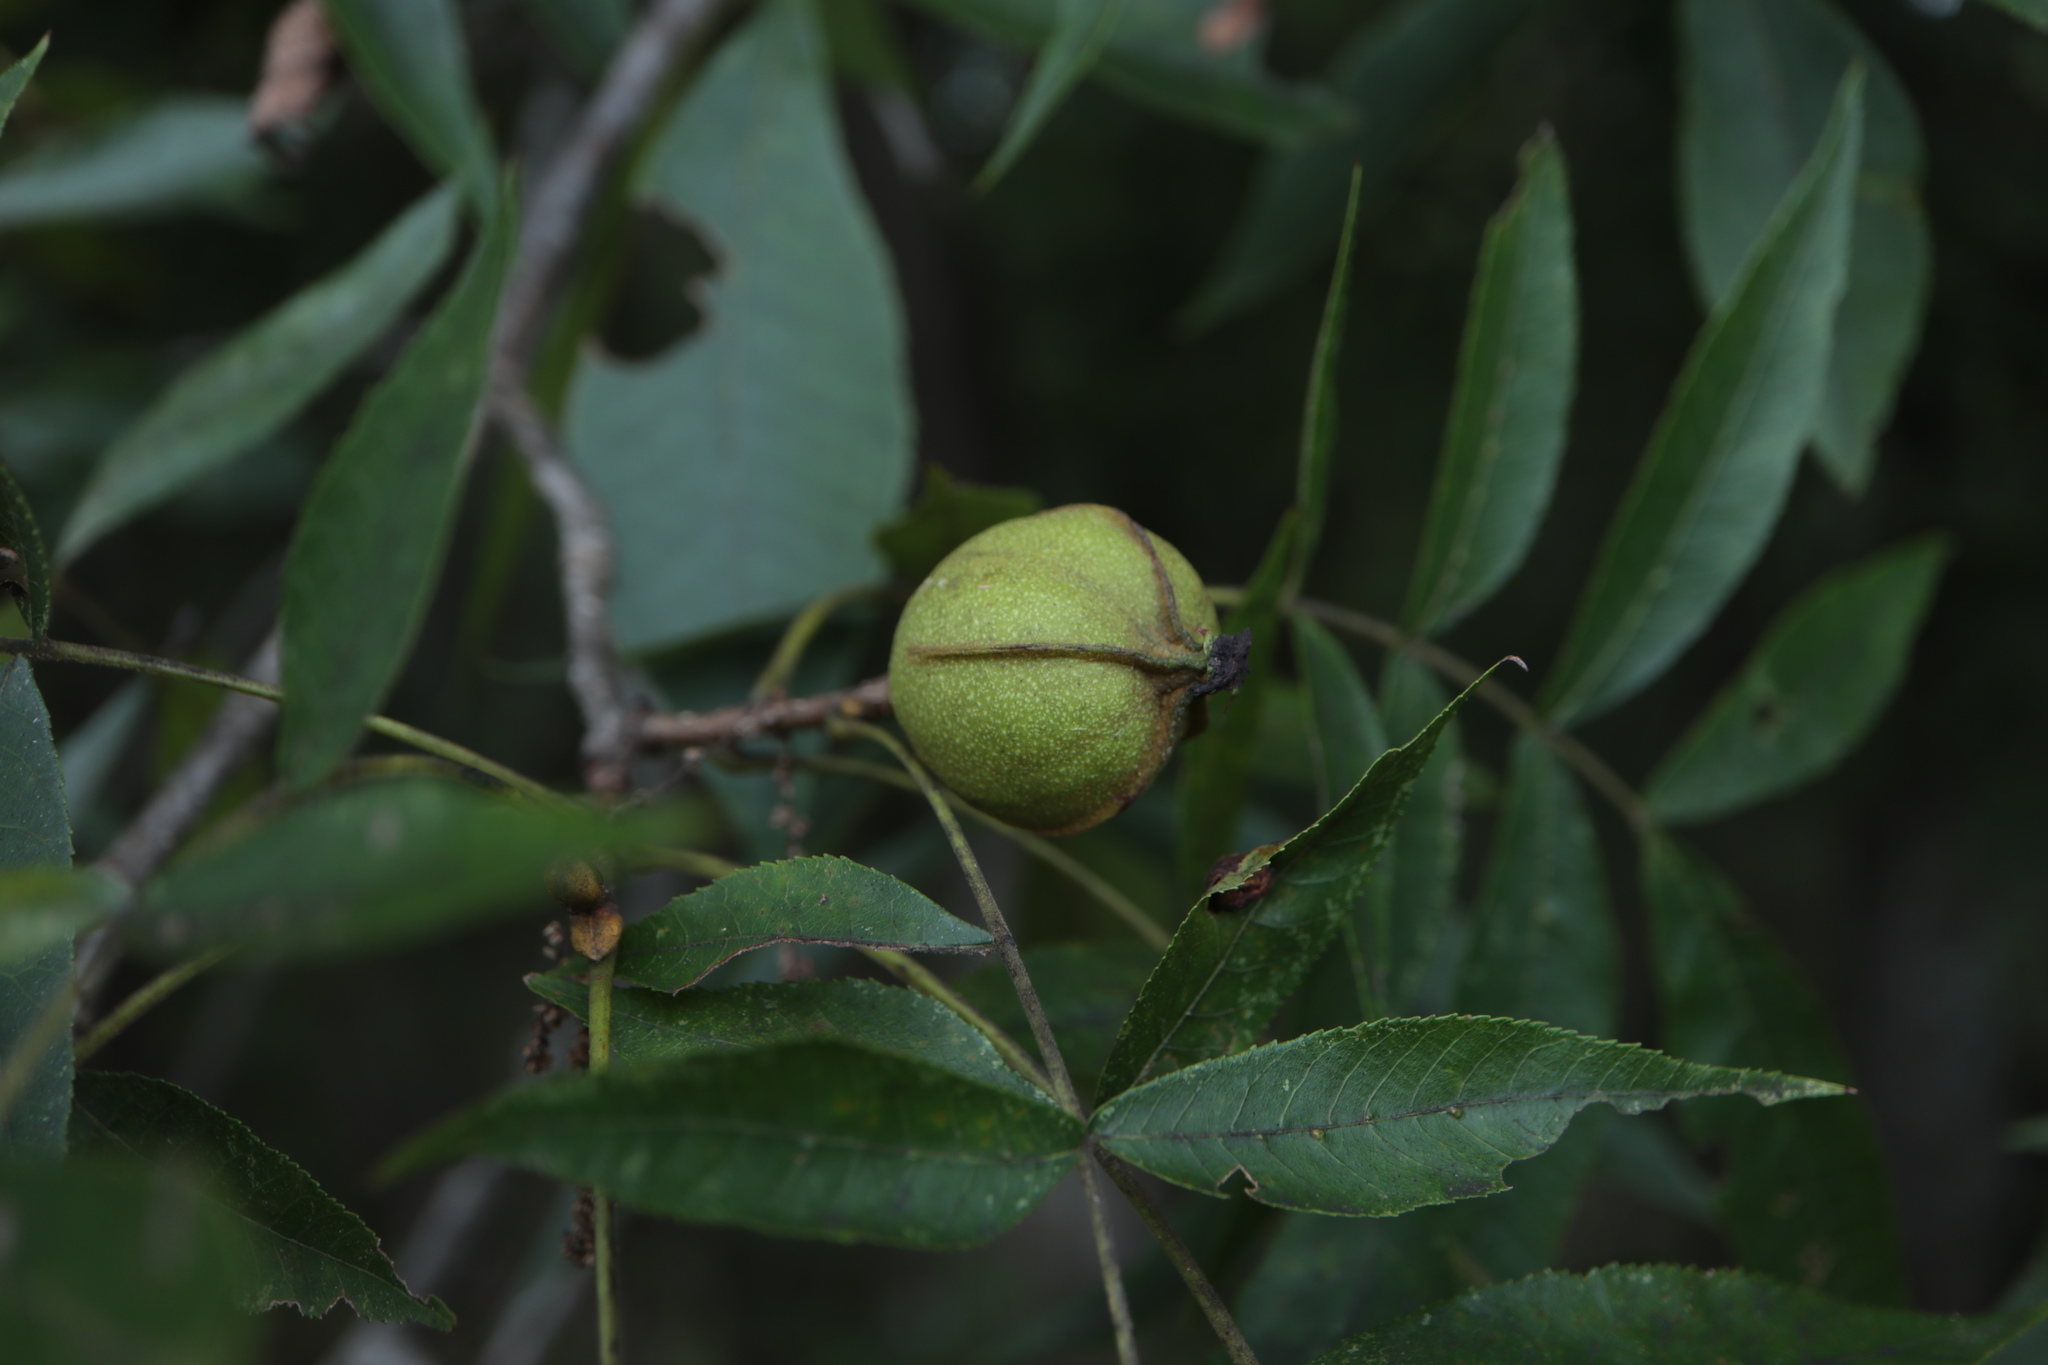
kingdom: Plantae
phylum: Tracheophyta
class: Magnoliopsida
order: Fagales
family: Juglandaceae
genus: Carya
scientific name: Carya cordiformis
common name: Bitternut hickory
